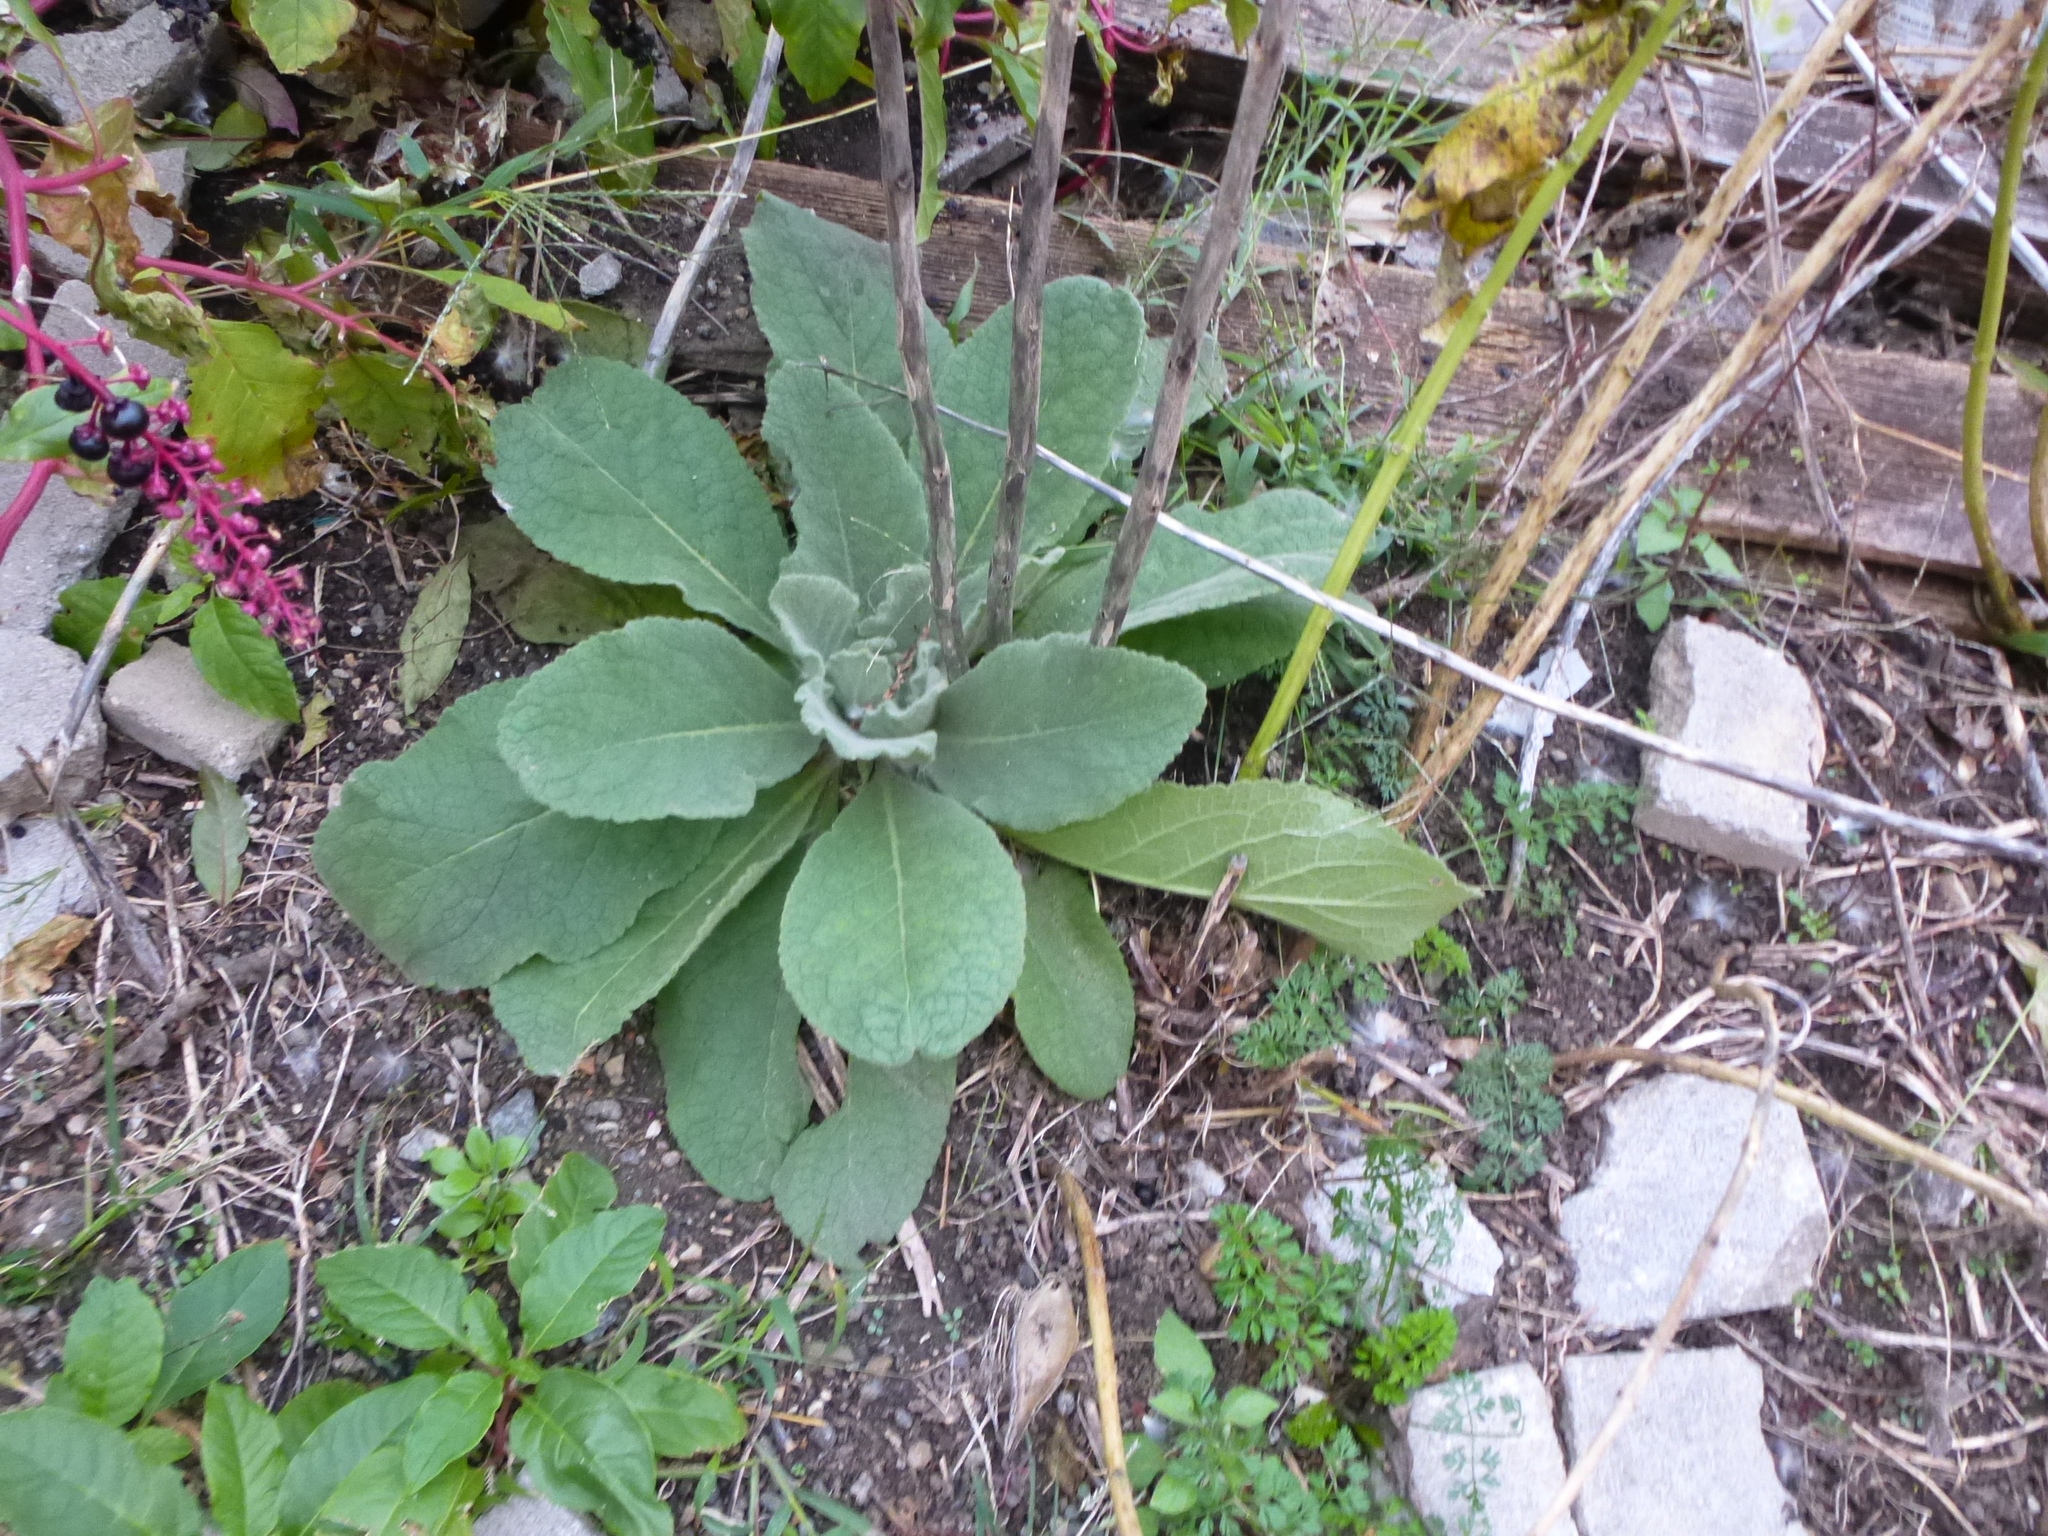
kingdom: Plantae
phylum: Tracheophyta
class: Magnoliopsida
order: Lamiales
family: Scrophulariaceae
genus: Verbascum
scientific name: Verbascum thapsus
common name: Common mullein
